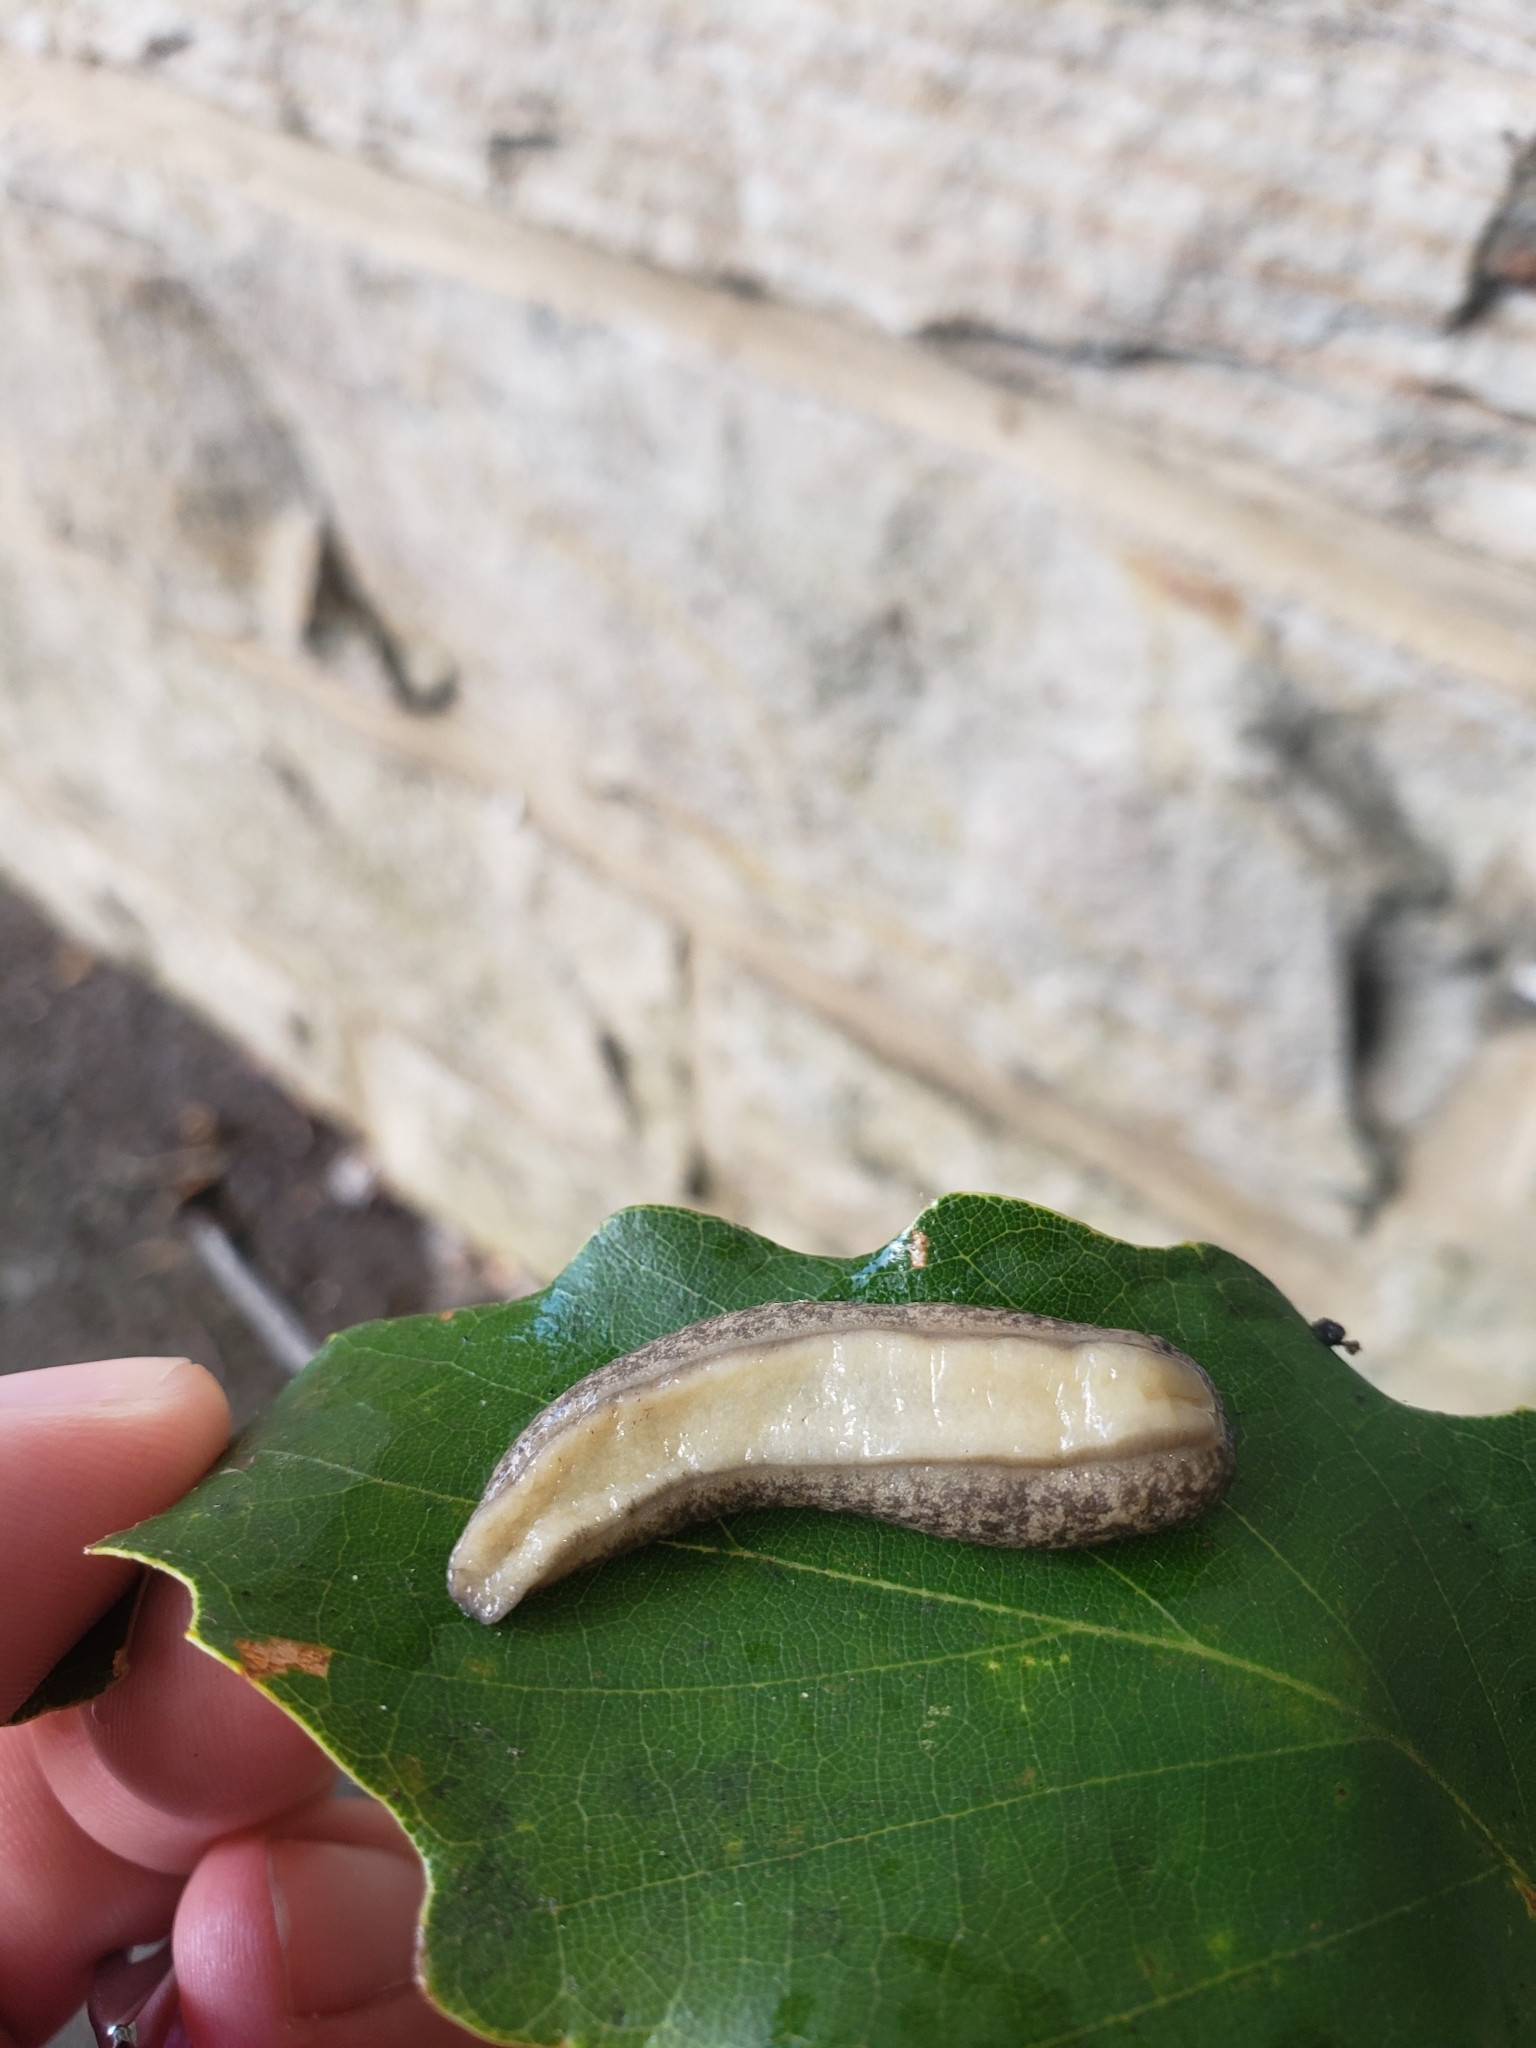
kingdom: Animalia
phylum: Mollusca
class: Gastropoda
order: Stylommatophora
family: Philomycidae
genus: Megapallifera
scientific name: Megapallifera mutabilis
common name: Changeable mantleslug
